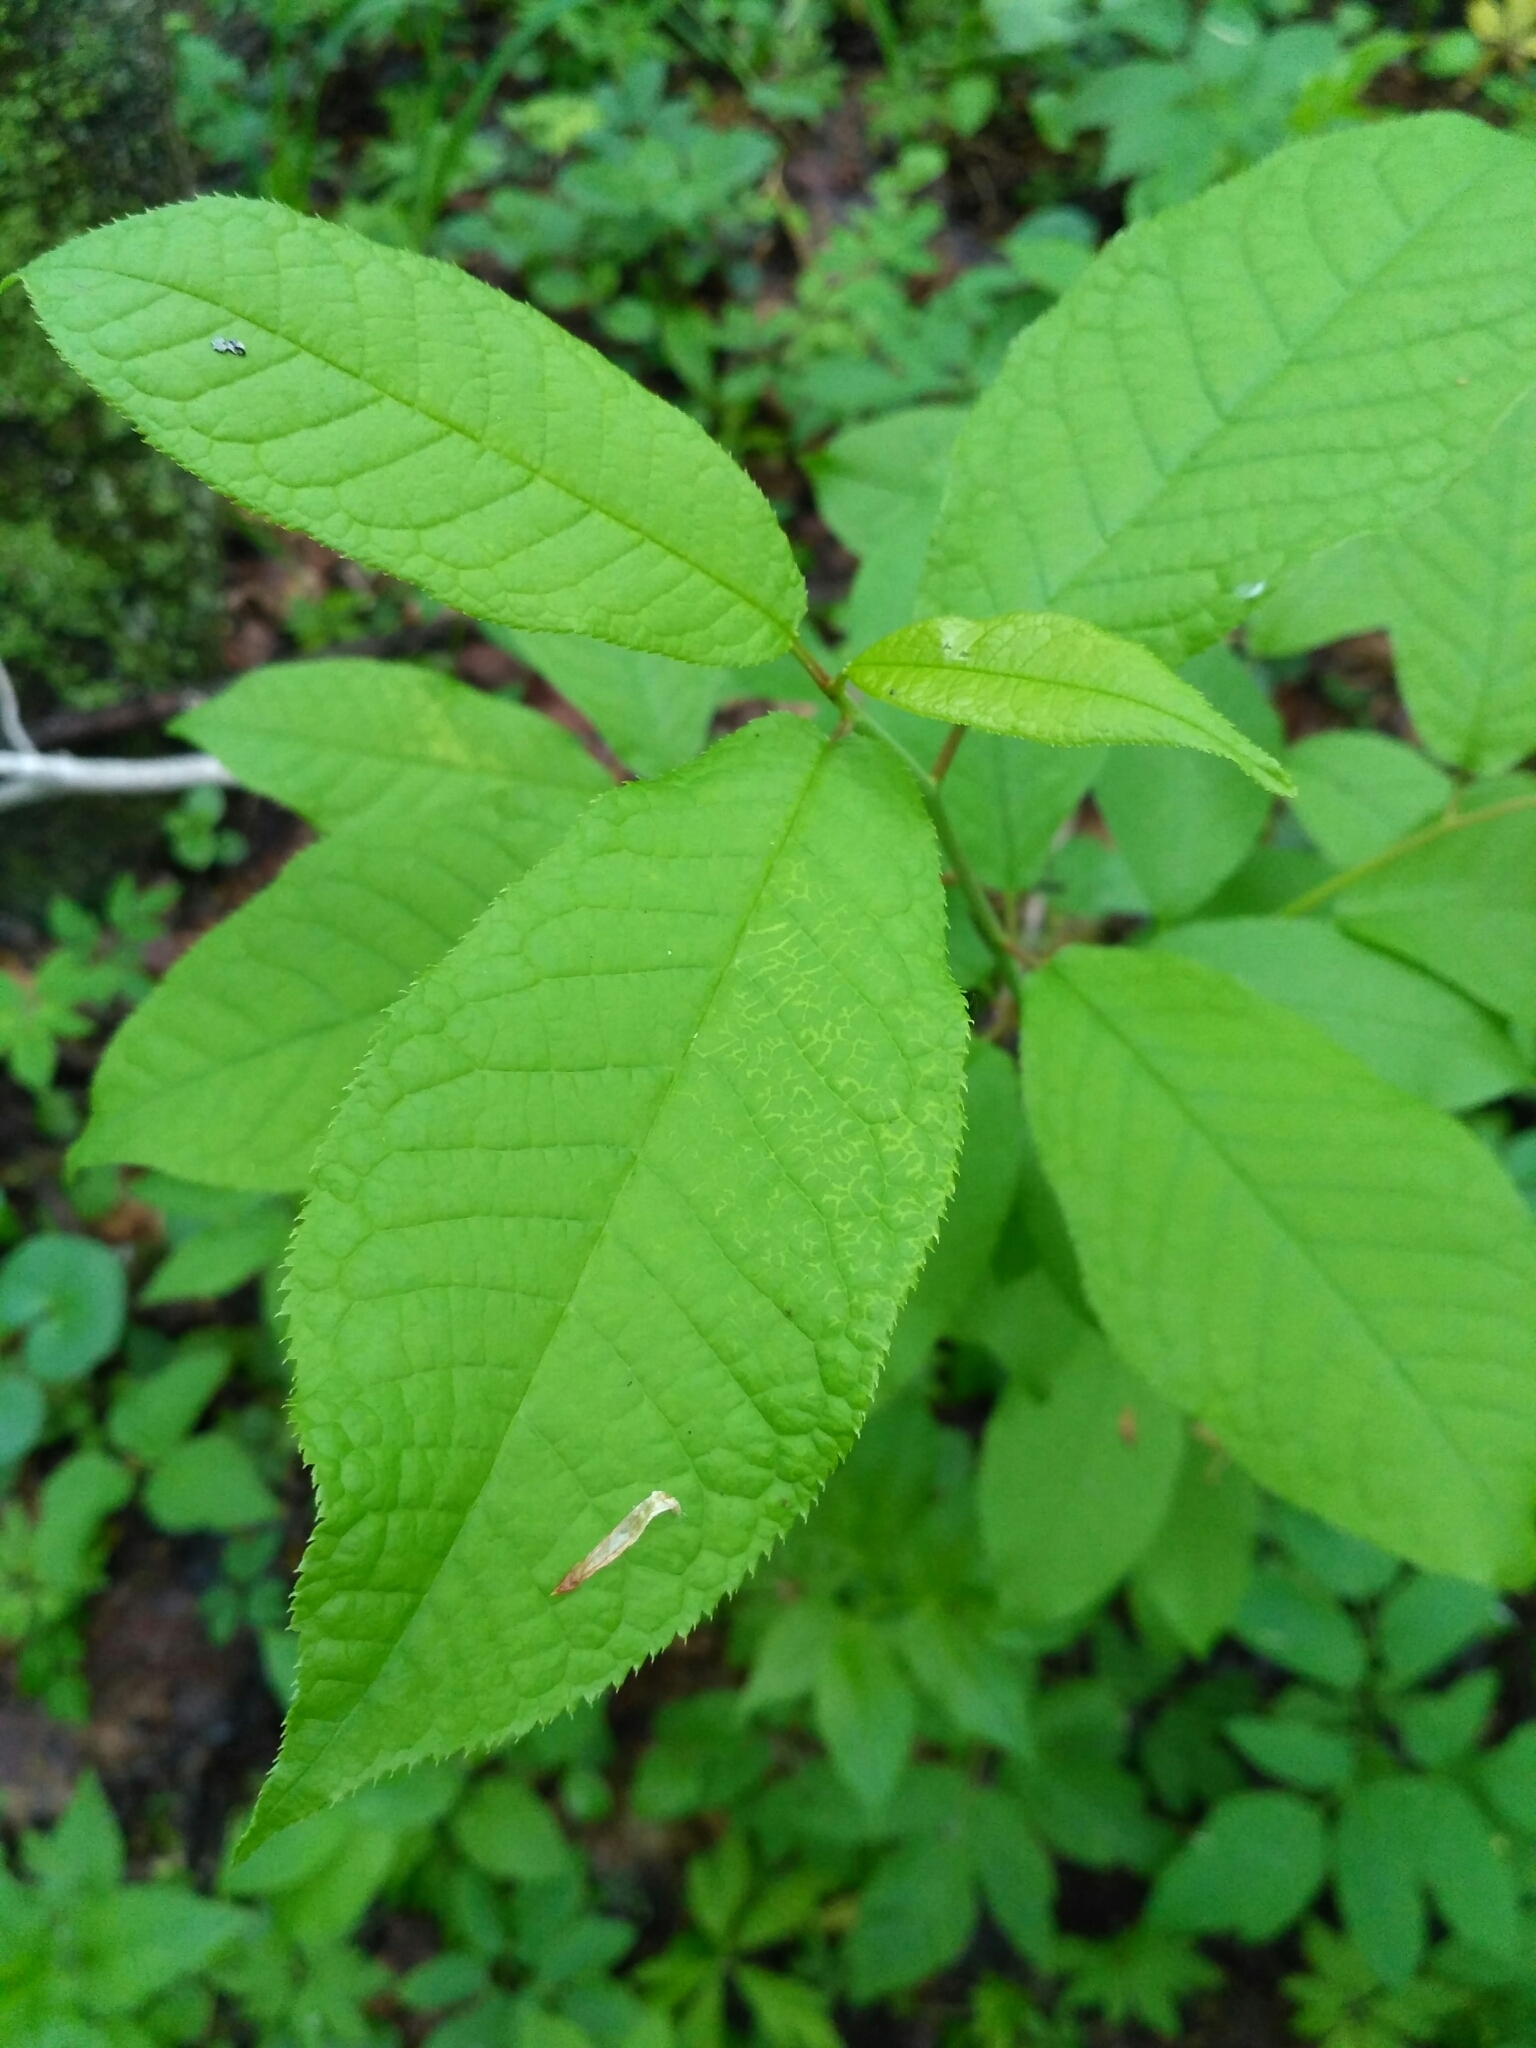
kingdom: Plantae
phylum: Tracheophyta
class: Magnoliopsida
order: Rosales
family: Rosaceae
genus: Prunus
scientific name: Prunus padus
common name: Bird cherry
